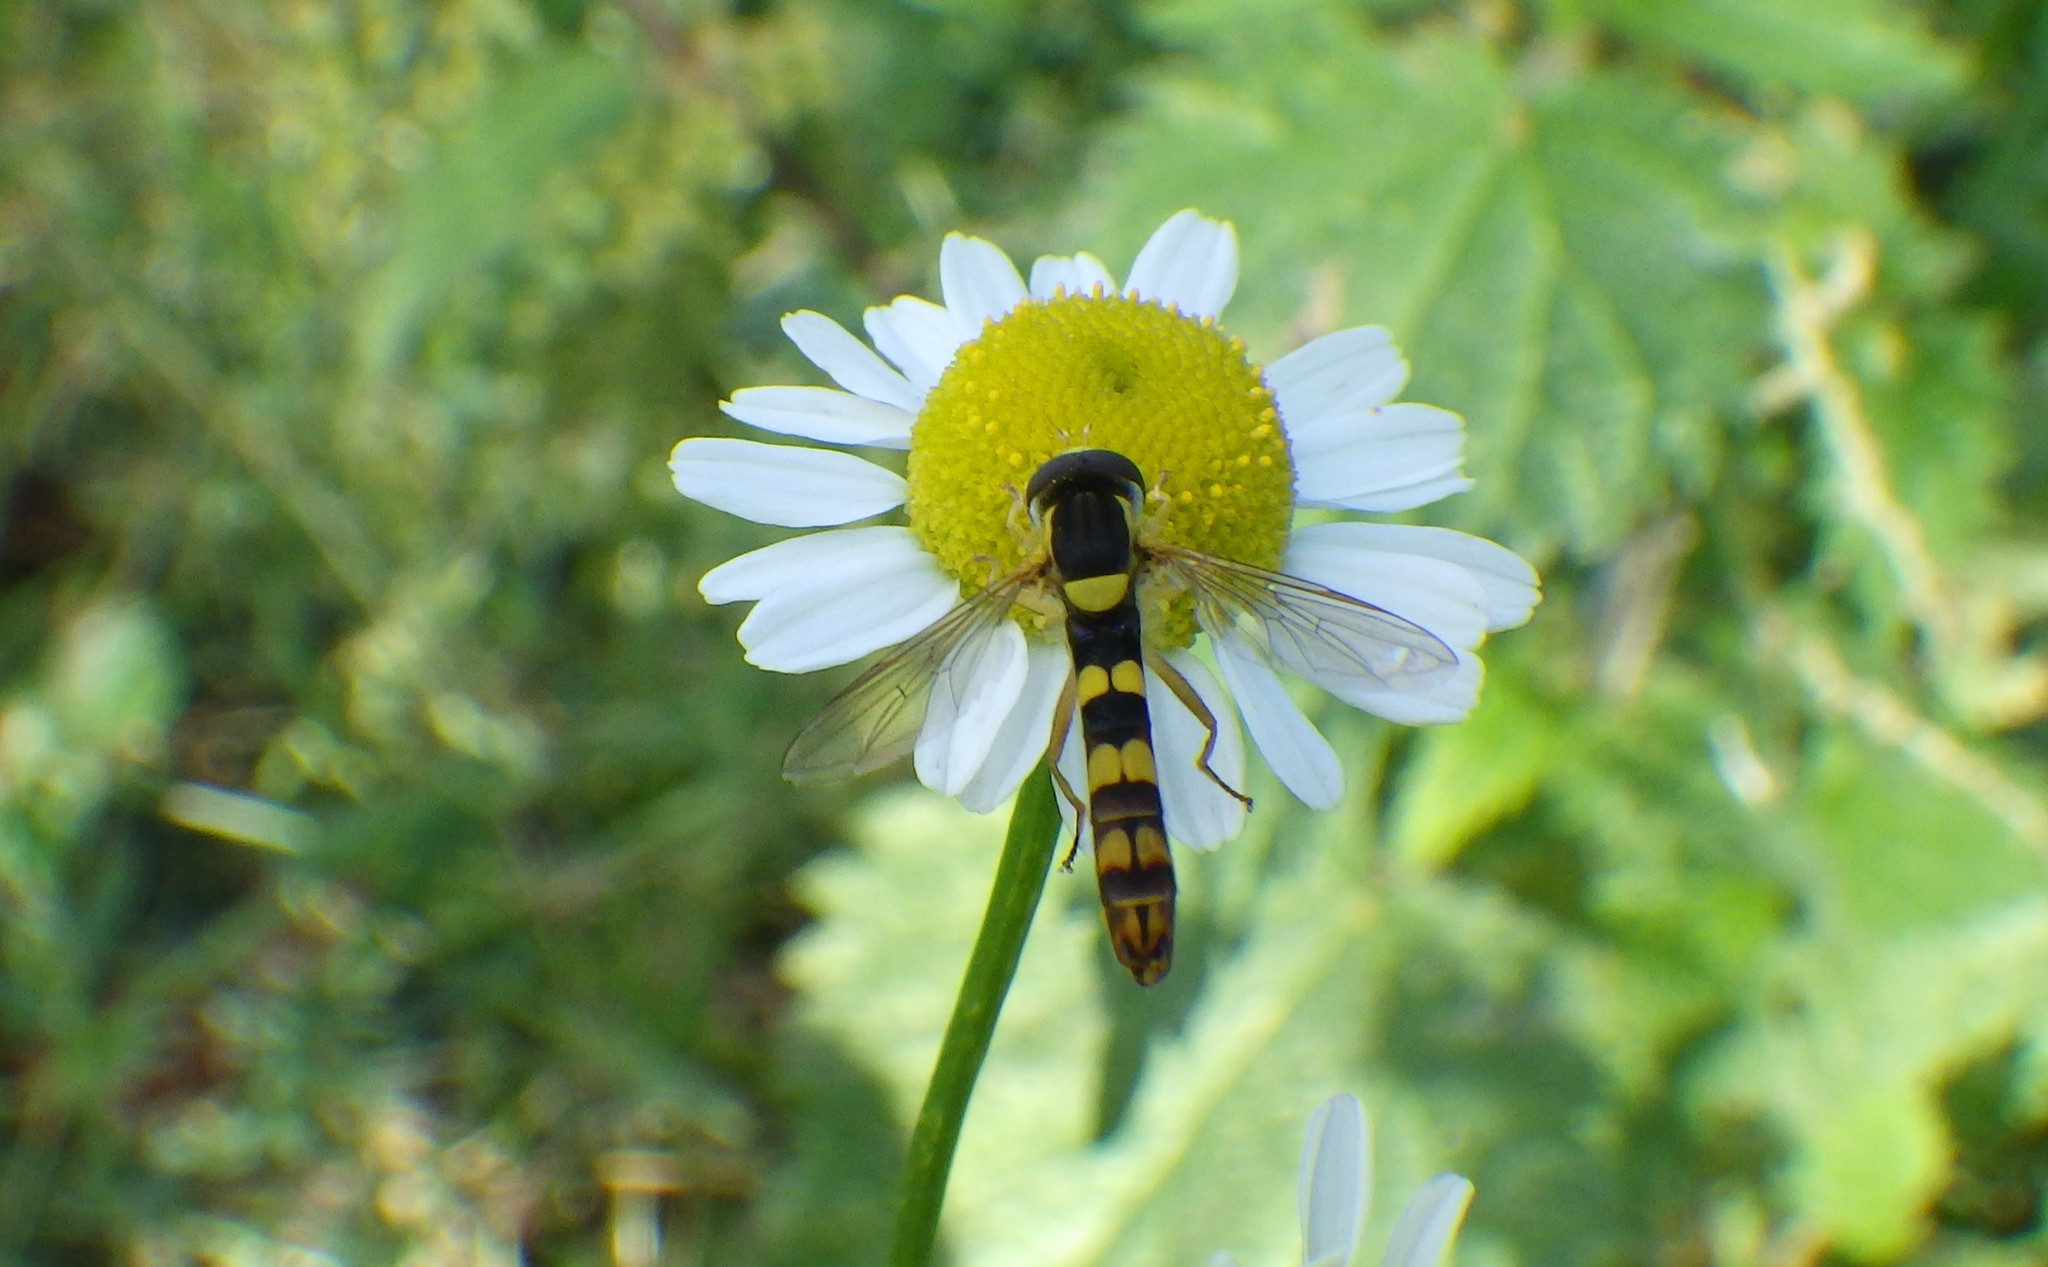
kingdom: Animalia
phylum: Arthropoda
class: Insecta
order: Diptera
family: Syrphidae
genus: Sphaerophoria
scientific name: Sphaerophoria scripta
